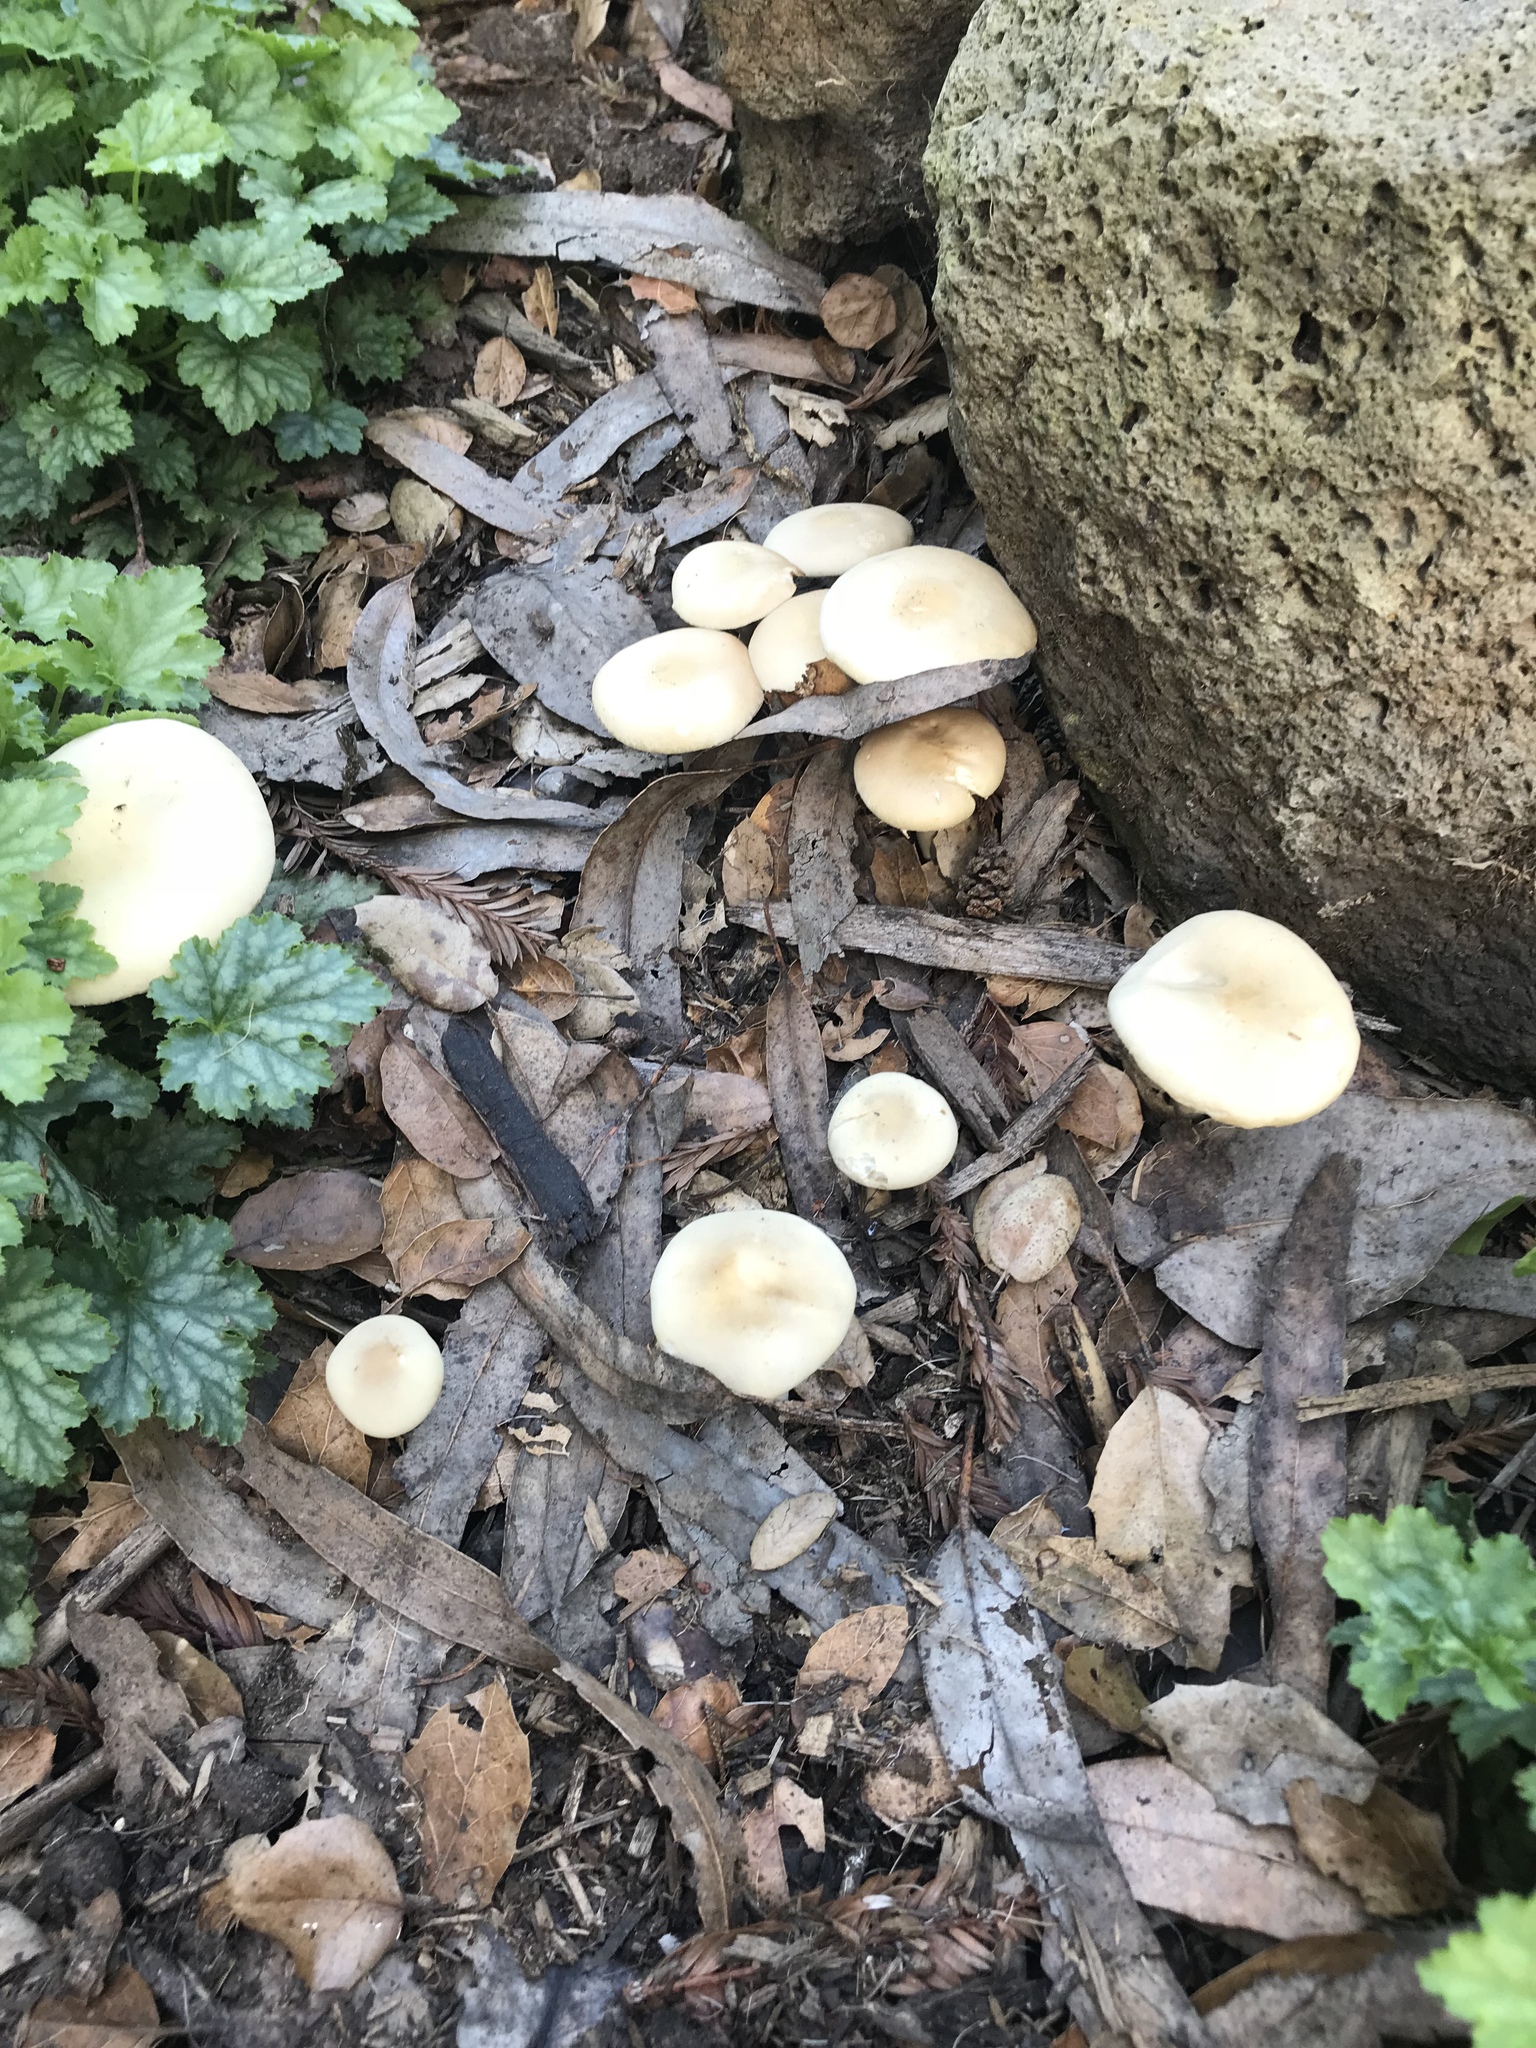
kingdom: Fungi
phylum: Basidiomycota
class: Agaricomycetes
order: Agaricales
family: Strophariaceae
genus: Agrocybe
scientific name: Agrocybe praecox
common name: Spring fieldcap
